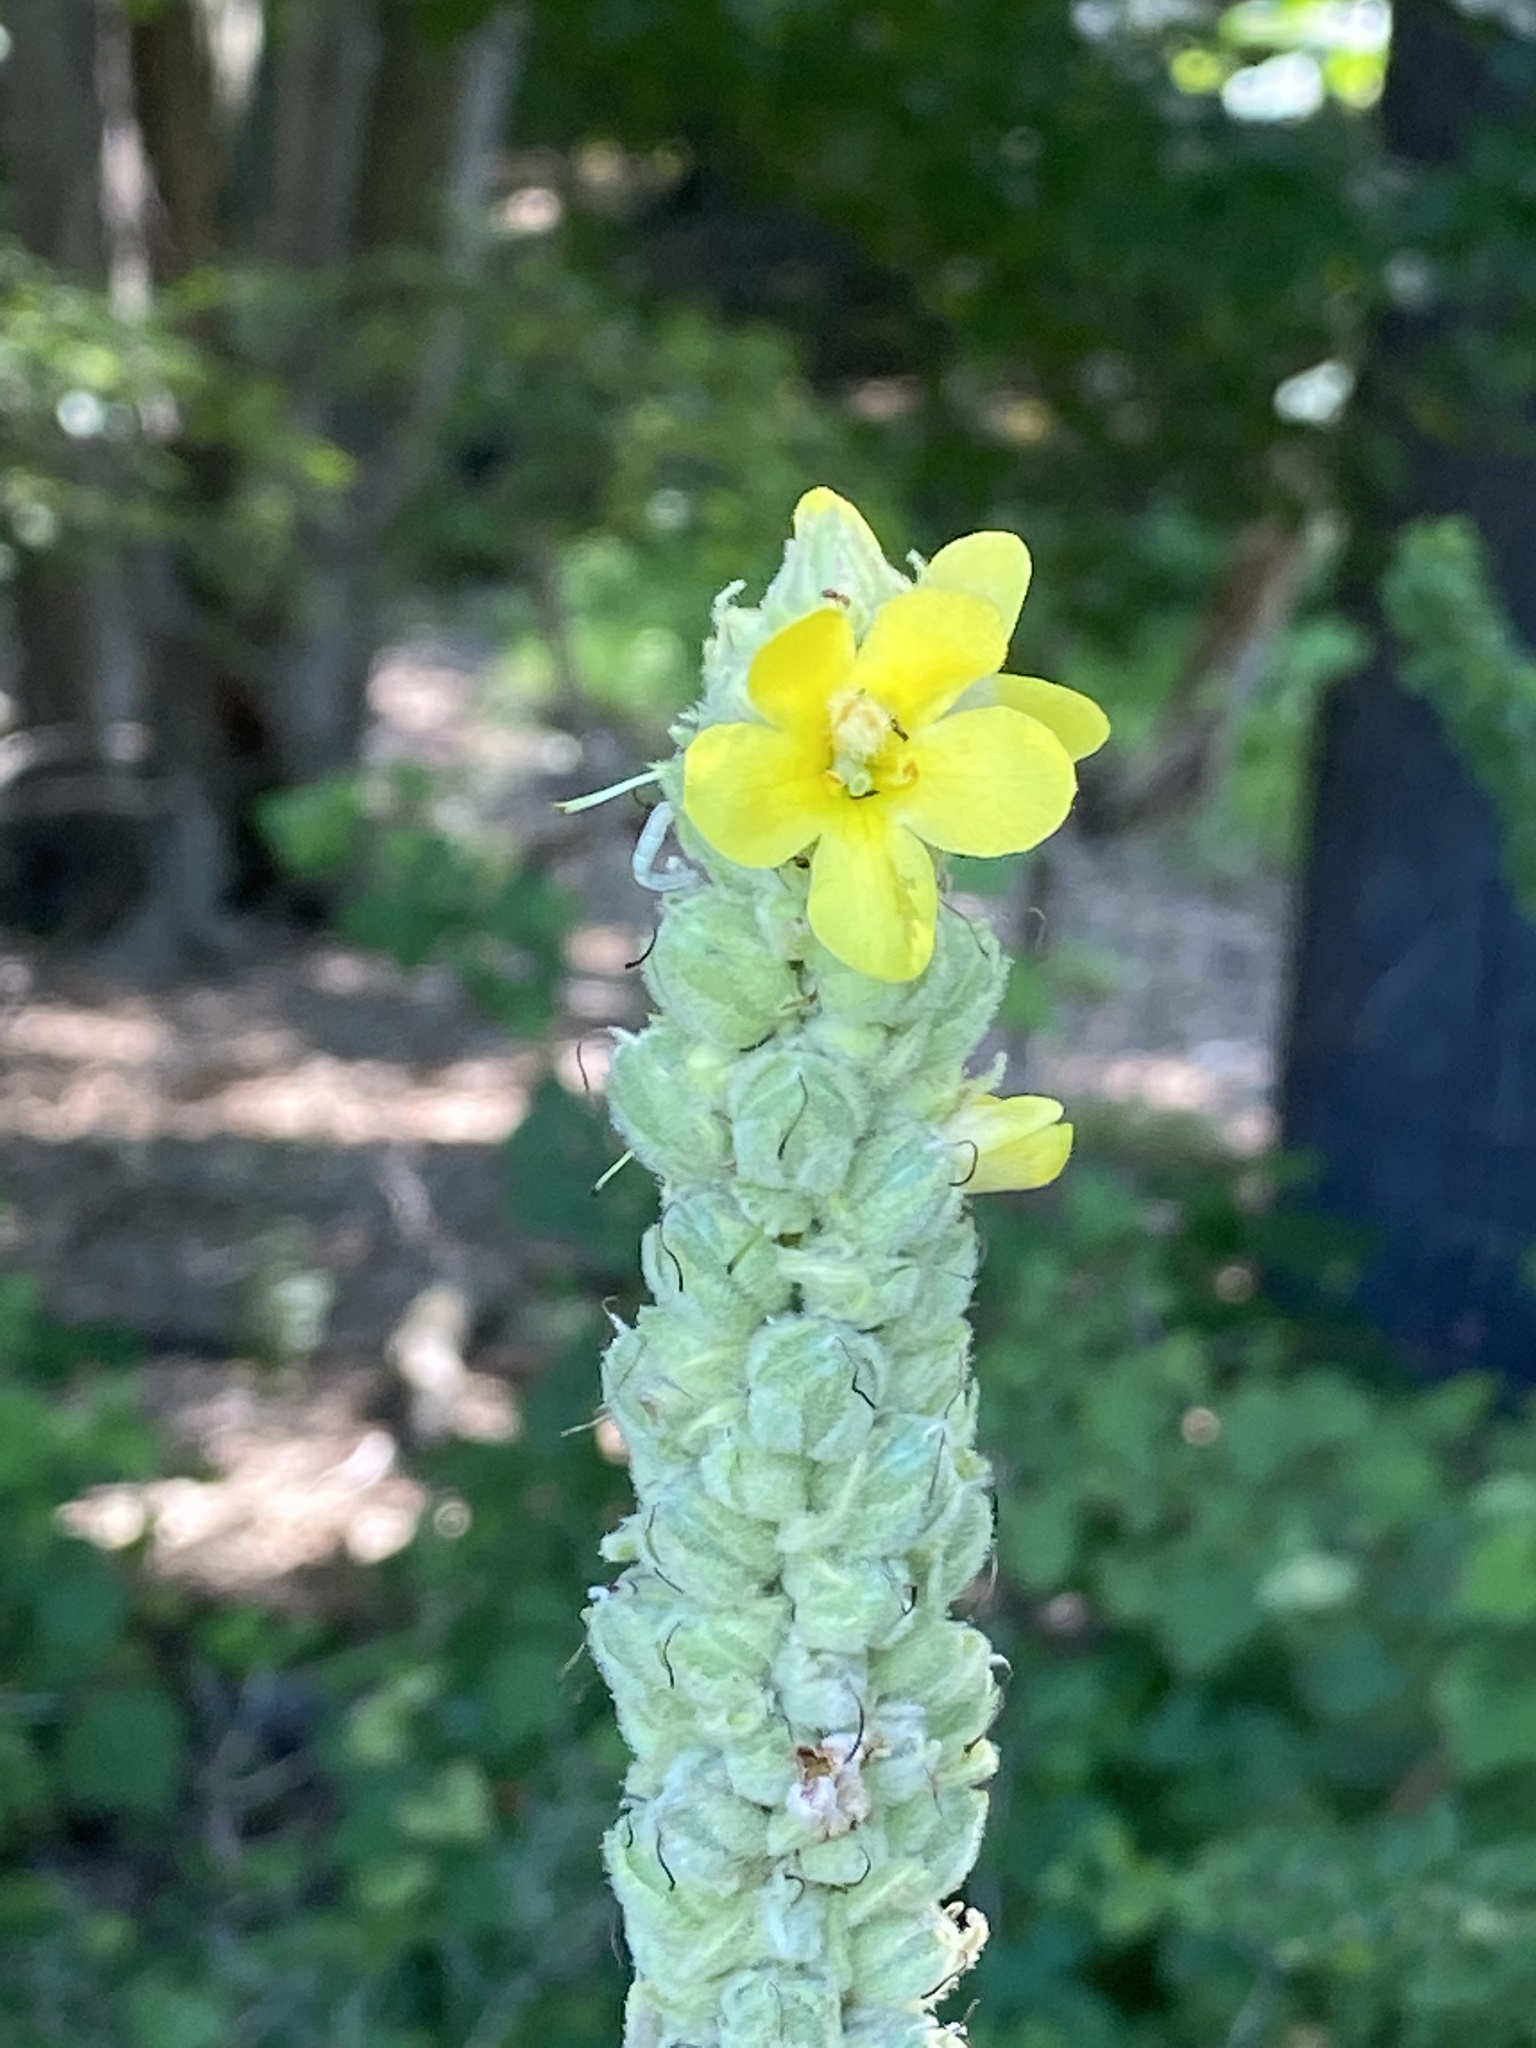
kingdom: Plantae
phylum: Tracheophyta
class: Magnoliopsida
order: Lamiales
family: Scrophulariaceae
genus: Verbascum
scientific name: Verbascum thapsus
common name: Common mullein
